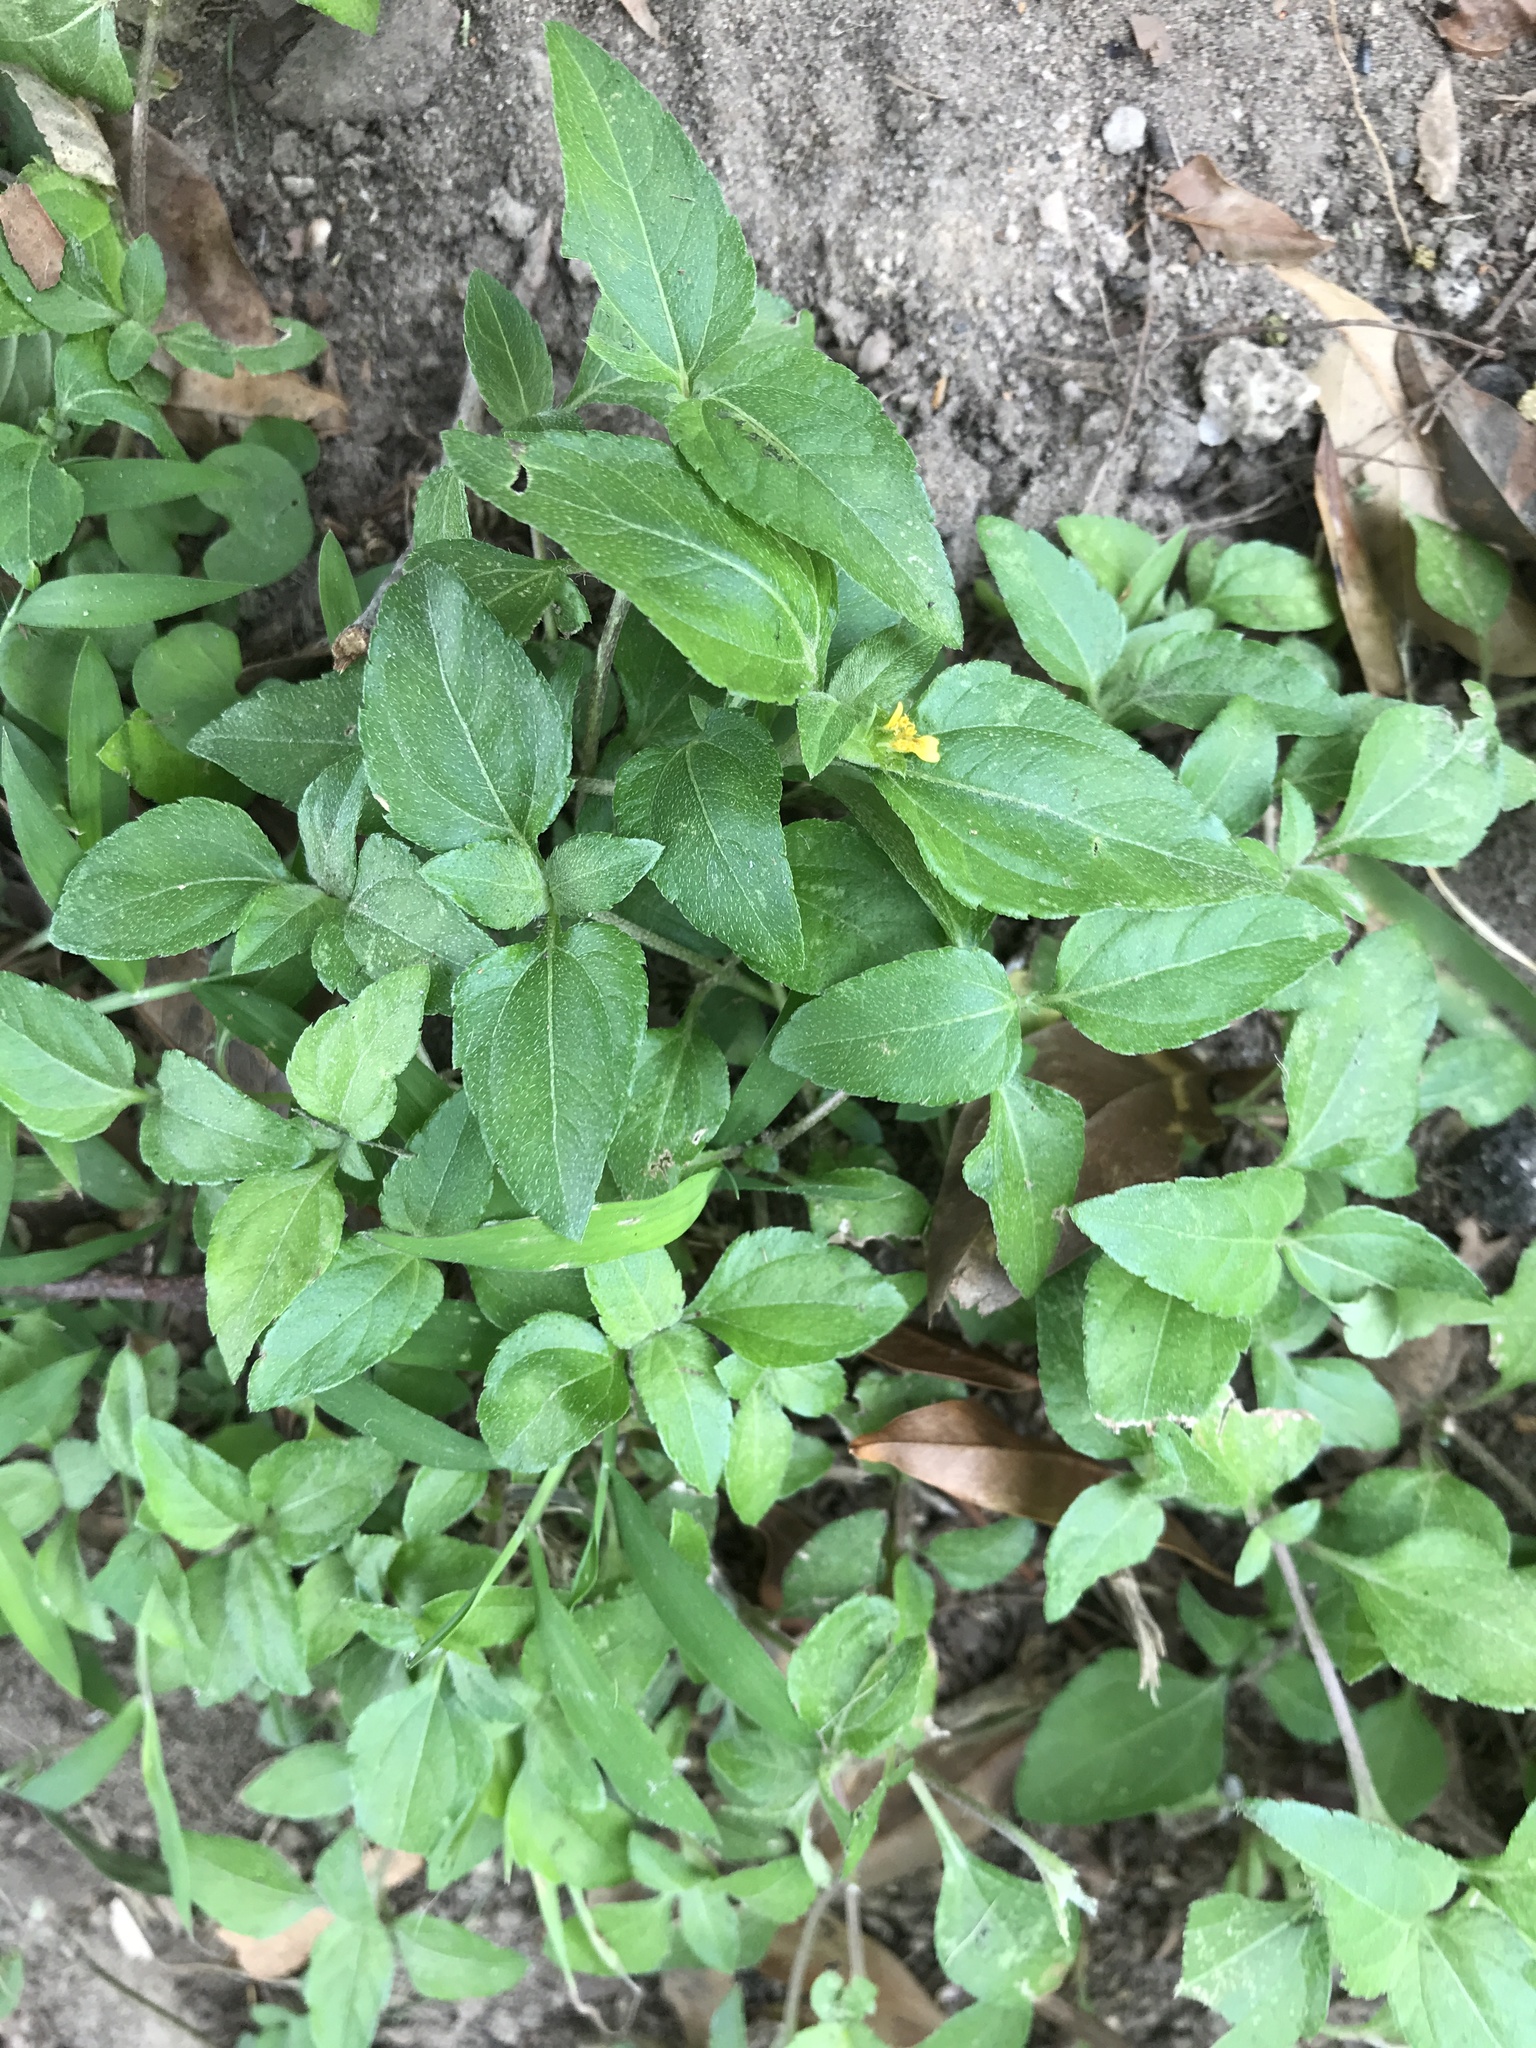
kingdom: Plantae
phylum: Tracheophyta
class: Magnoliopsida
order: Asterales
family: Asteraceae
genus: Calyptocarpus
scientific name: Calyptocarpus vialis
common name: Straggler daisy
